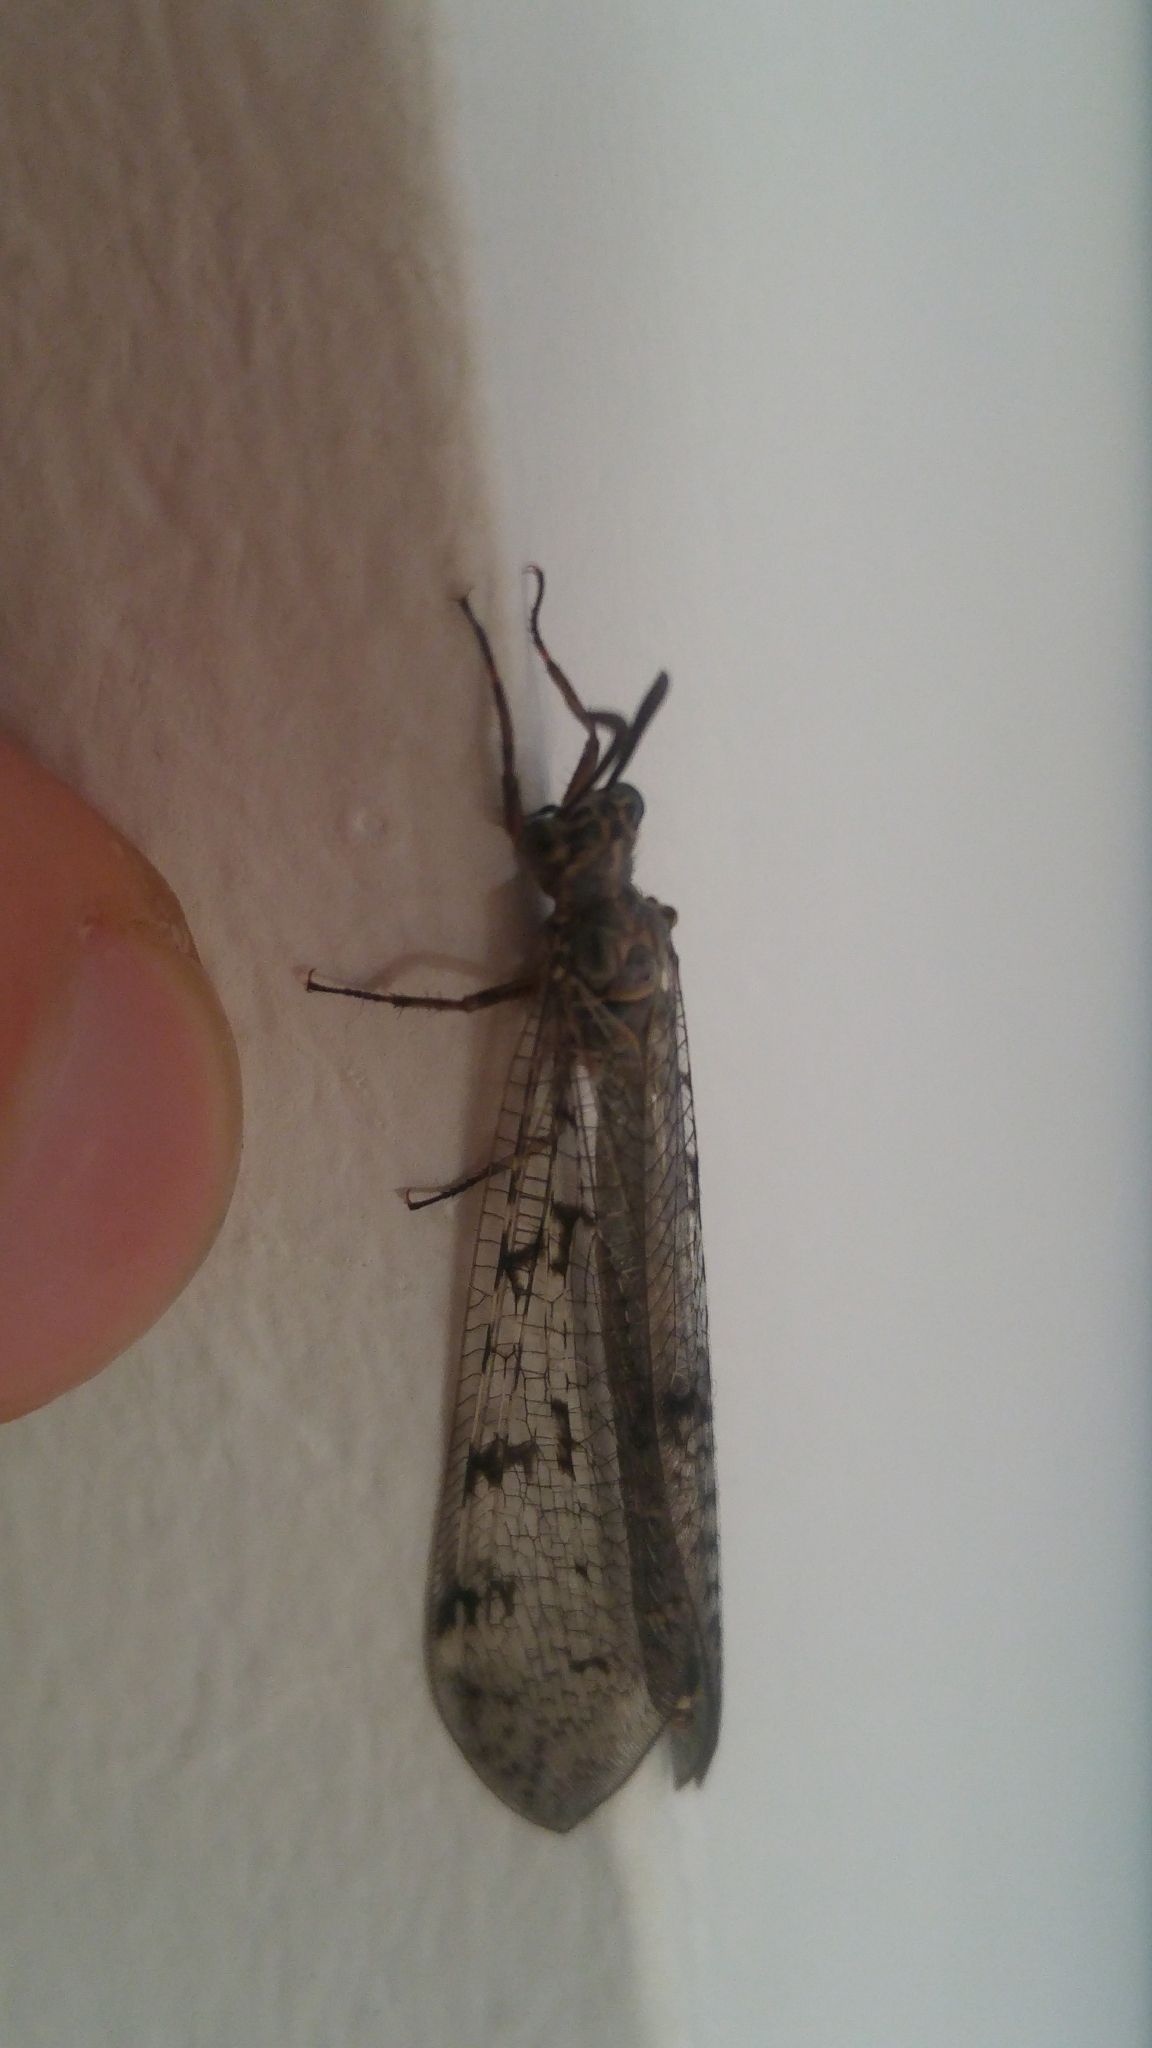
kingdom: Animalia
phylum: Arthropoda
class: Insecta
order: Neuroptera
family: Myrmeleontidae
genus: Euroleon
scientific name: Euroleon nostras
